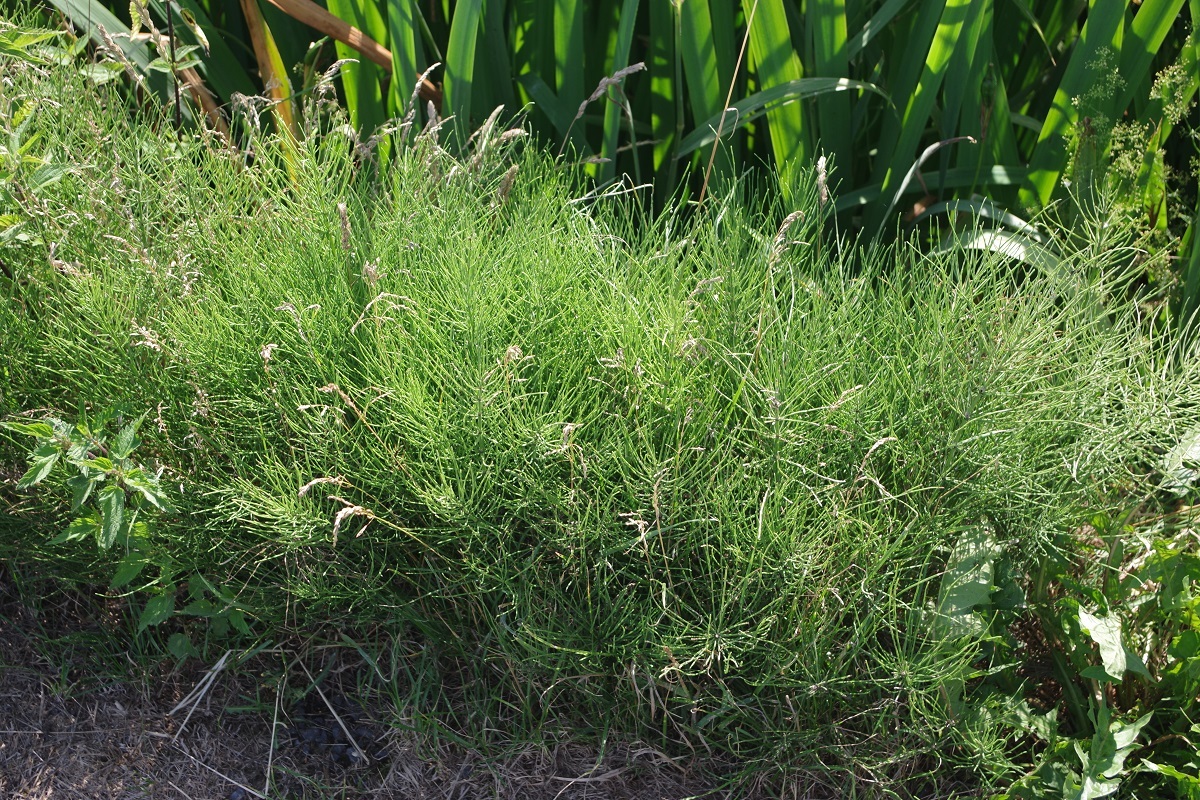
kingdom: Plantae
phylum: Tracheophyta
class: Polypodiopsida
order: Equisetales
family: Equisetaceae
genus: Equisetum
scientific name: Equisetum arvense
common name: Field horsetail
